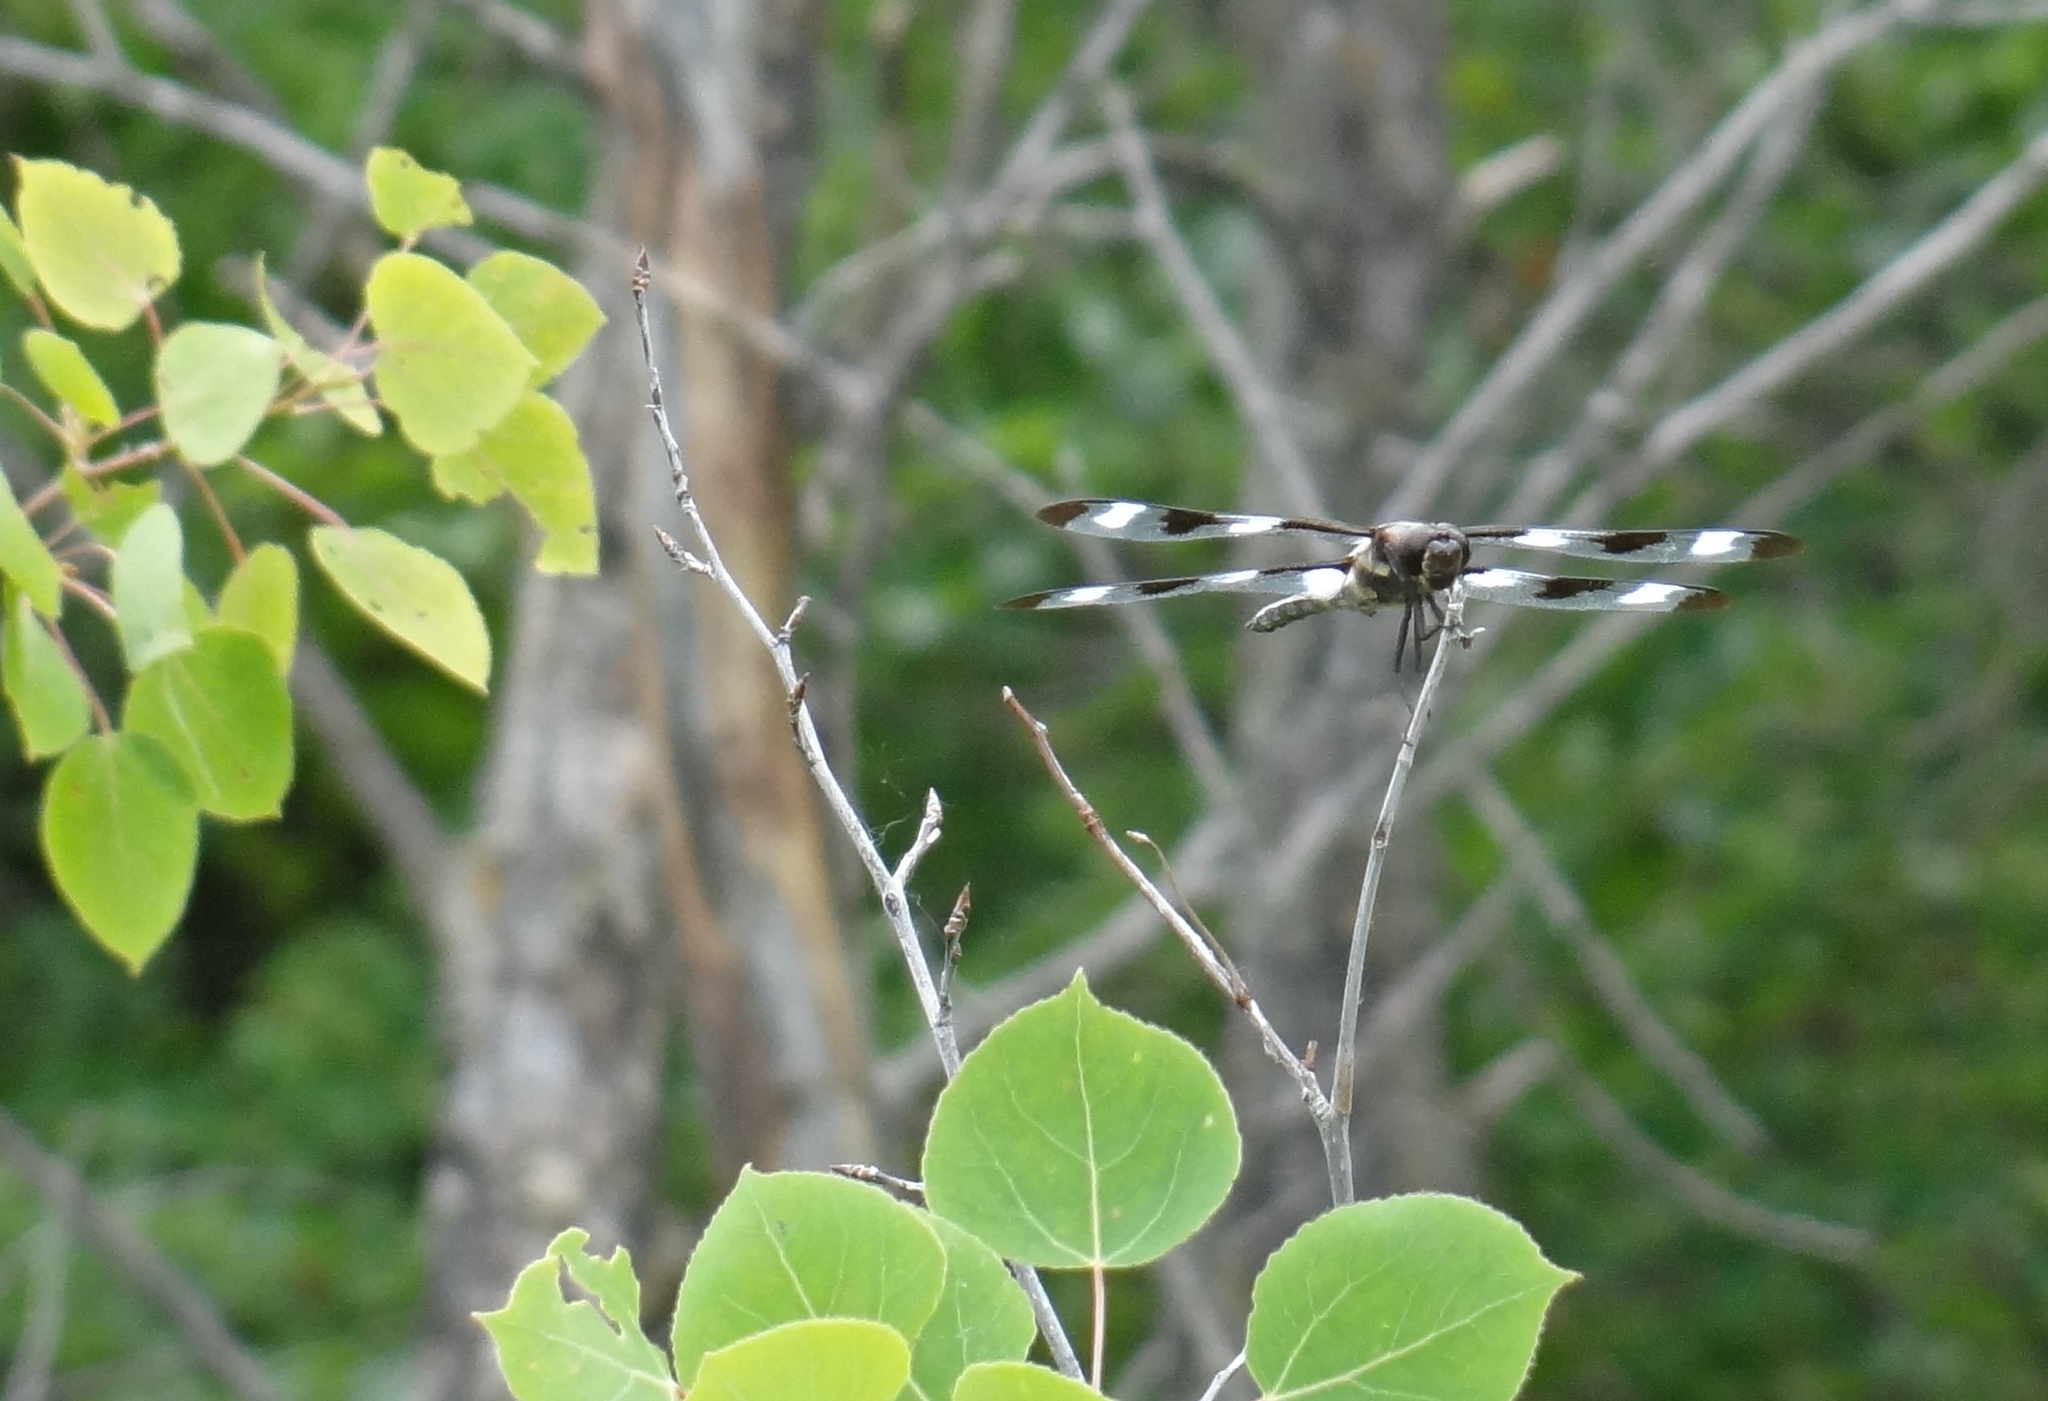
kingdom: Animalia
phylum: Arthropoda
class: Insecta
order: Odonata
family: Libellulidae
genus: Libellula
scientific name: Libellula pulchella
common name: Twelve-spotted skimmer
